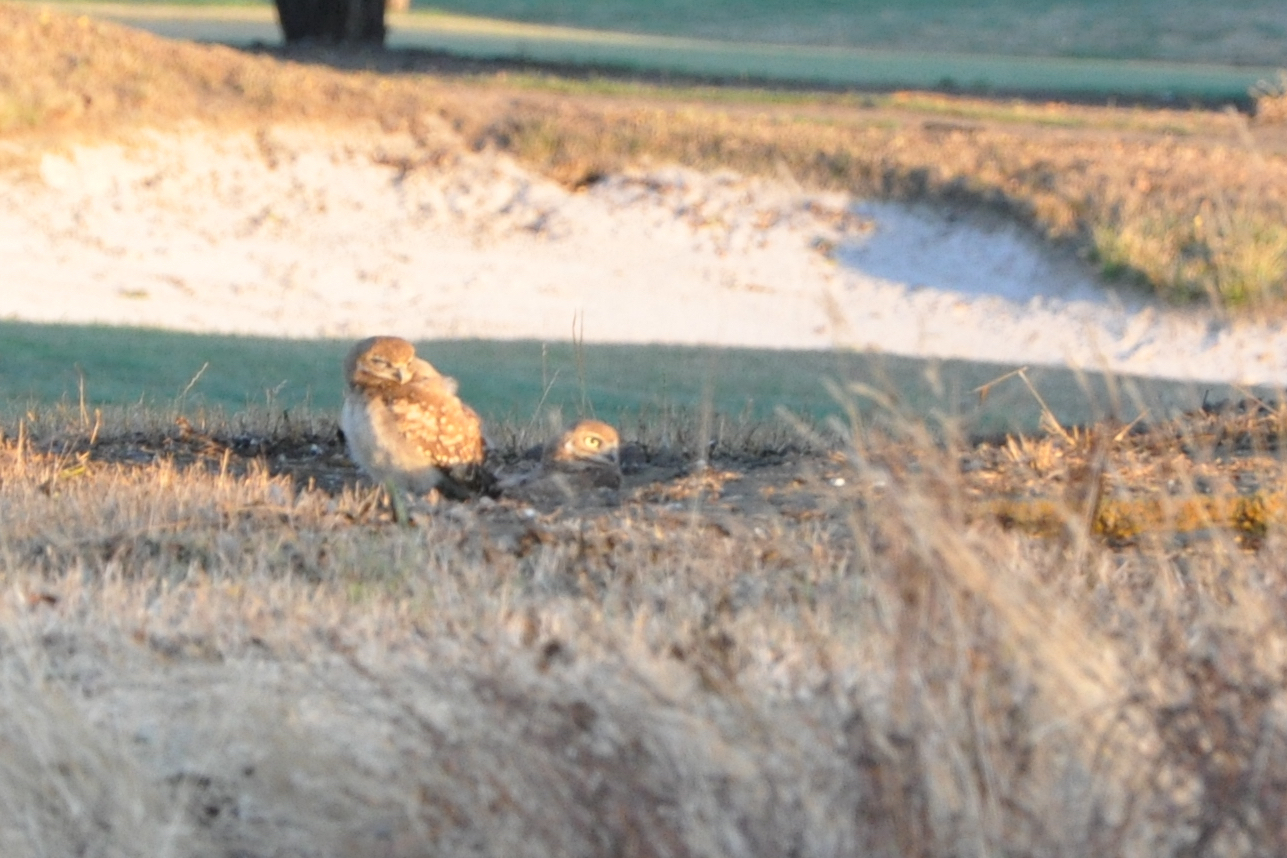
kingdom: Animalia
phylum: Chordata
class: Aves
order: Strigiformes
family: Strigidae
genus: Athene
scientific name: Athene cunicularia
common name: Burrowing owl
